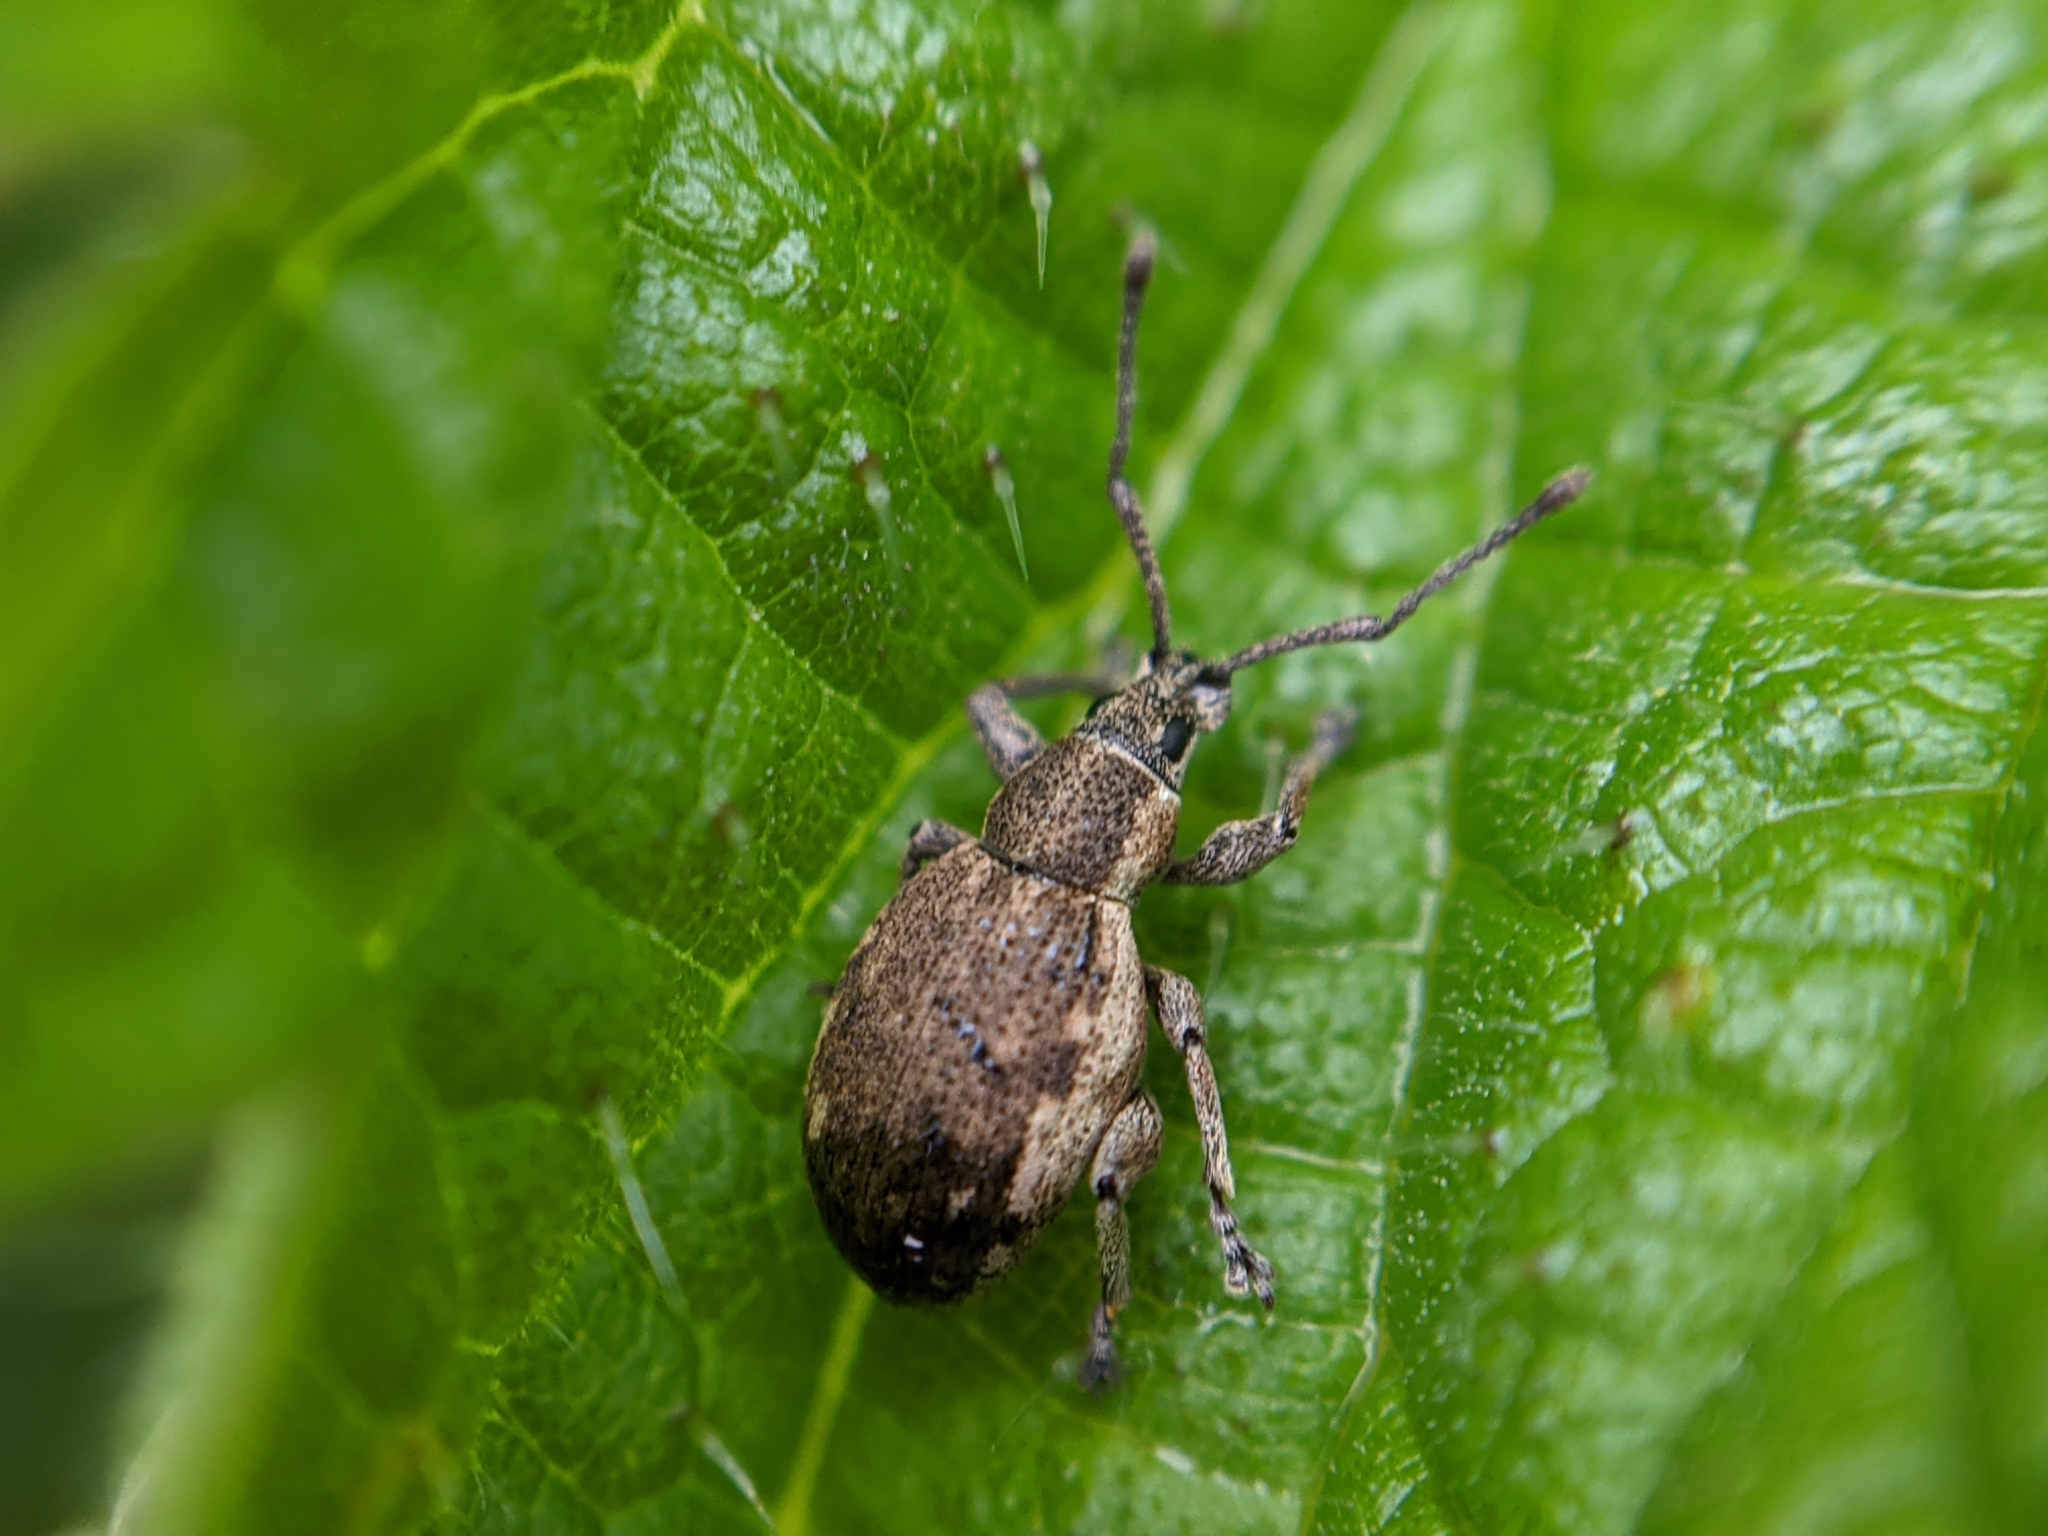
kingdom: Animalia
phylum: Arthropoda
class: Insecta
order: Coleoptera
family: Curculionidae
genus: Peritelus
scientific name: Peritelus sphaeroides
